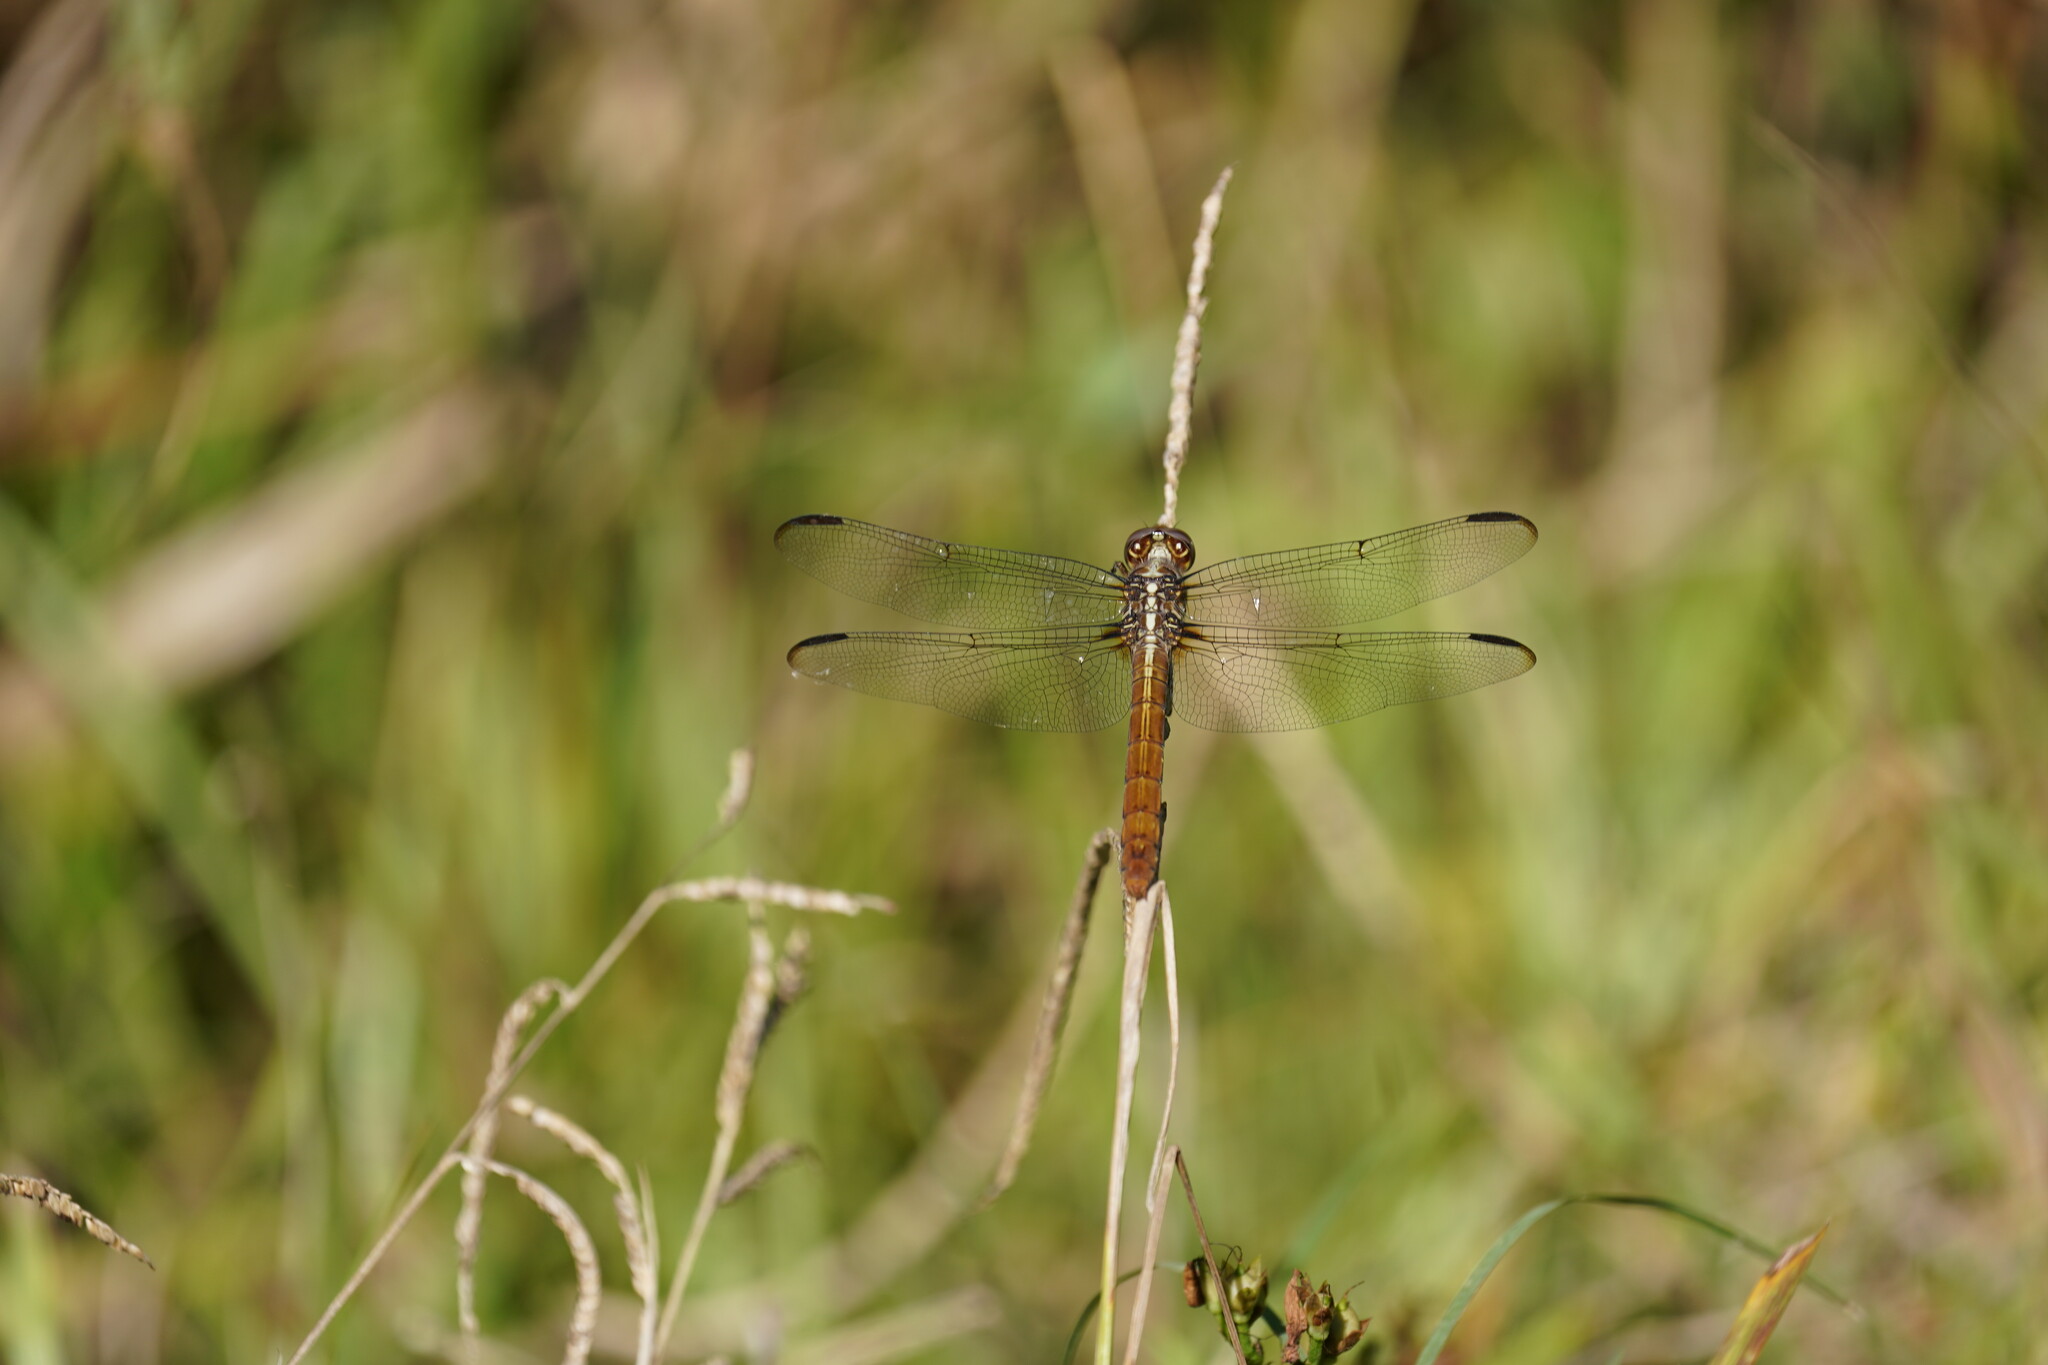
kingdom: Animalia
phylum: Arthropoda
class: Insecta
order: Odonata
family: Libellulidae
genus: Orthemis
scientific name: Orthemis ferruginea
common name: Roseate skimmer
